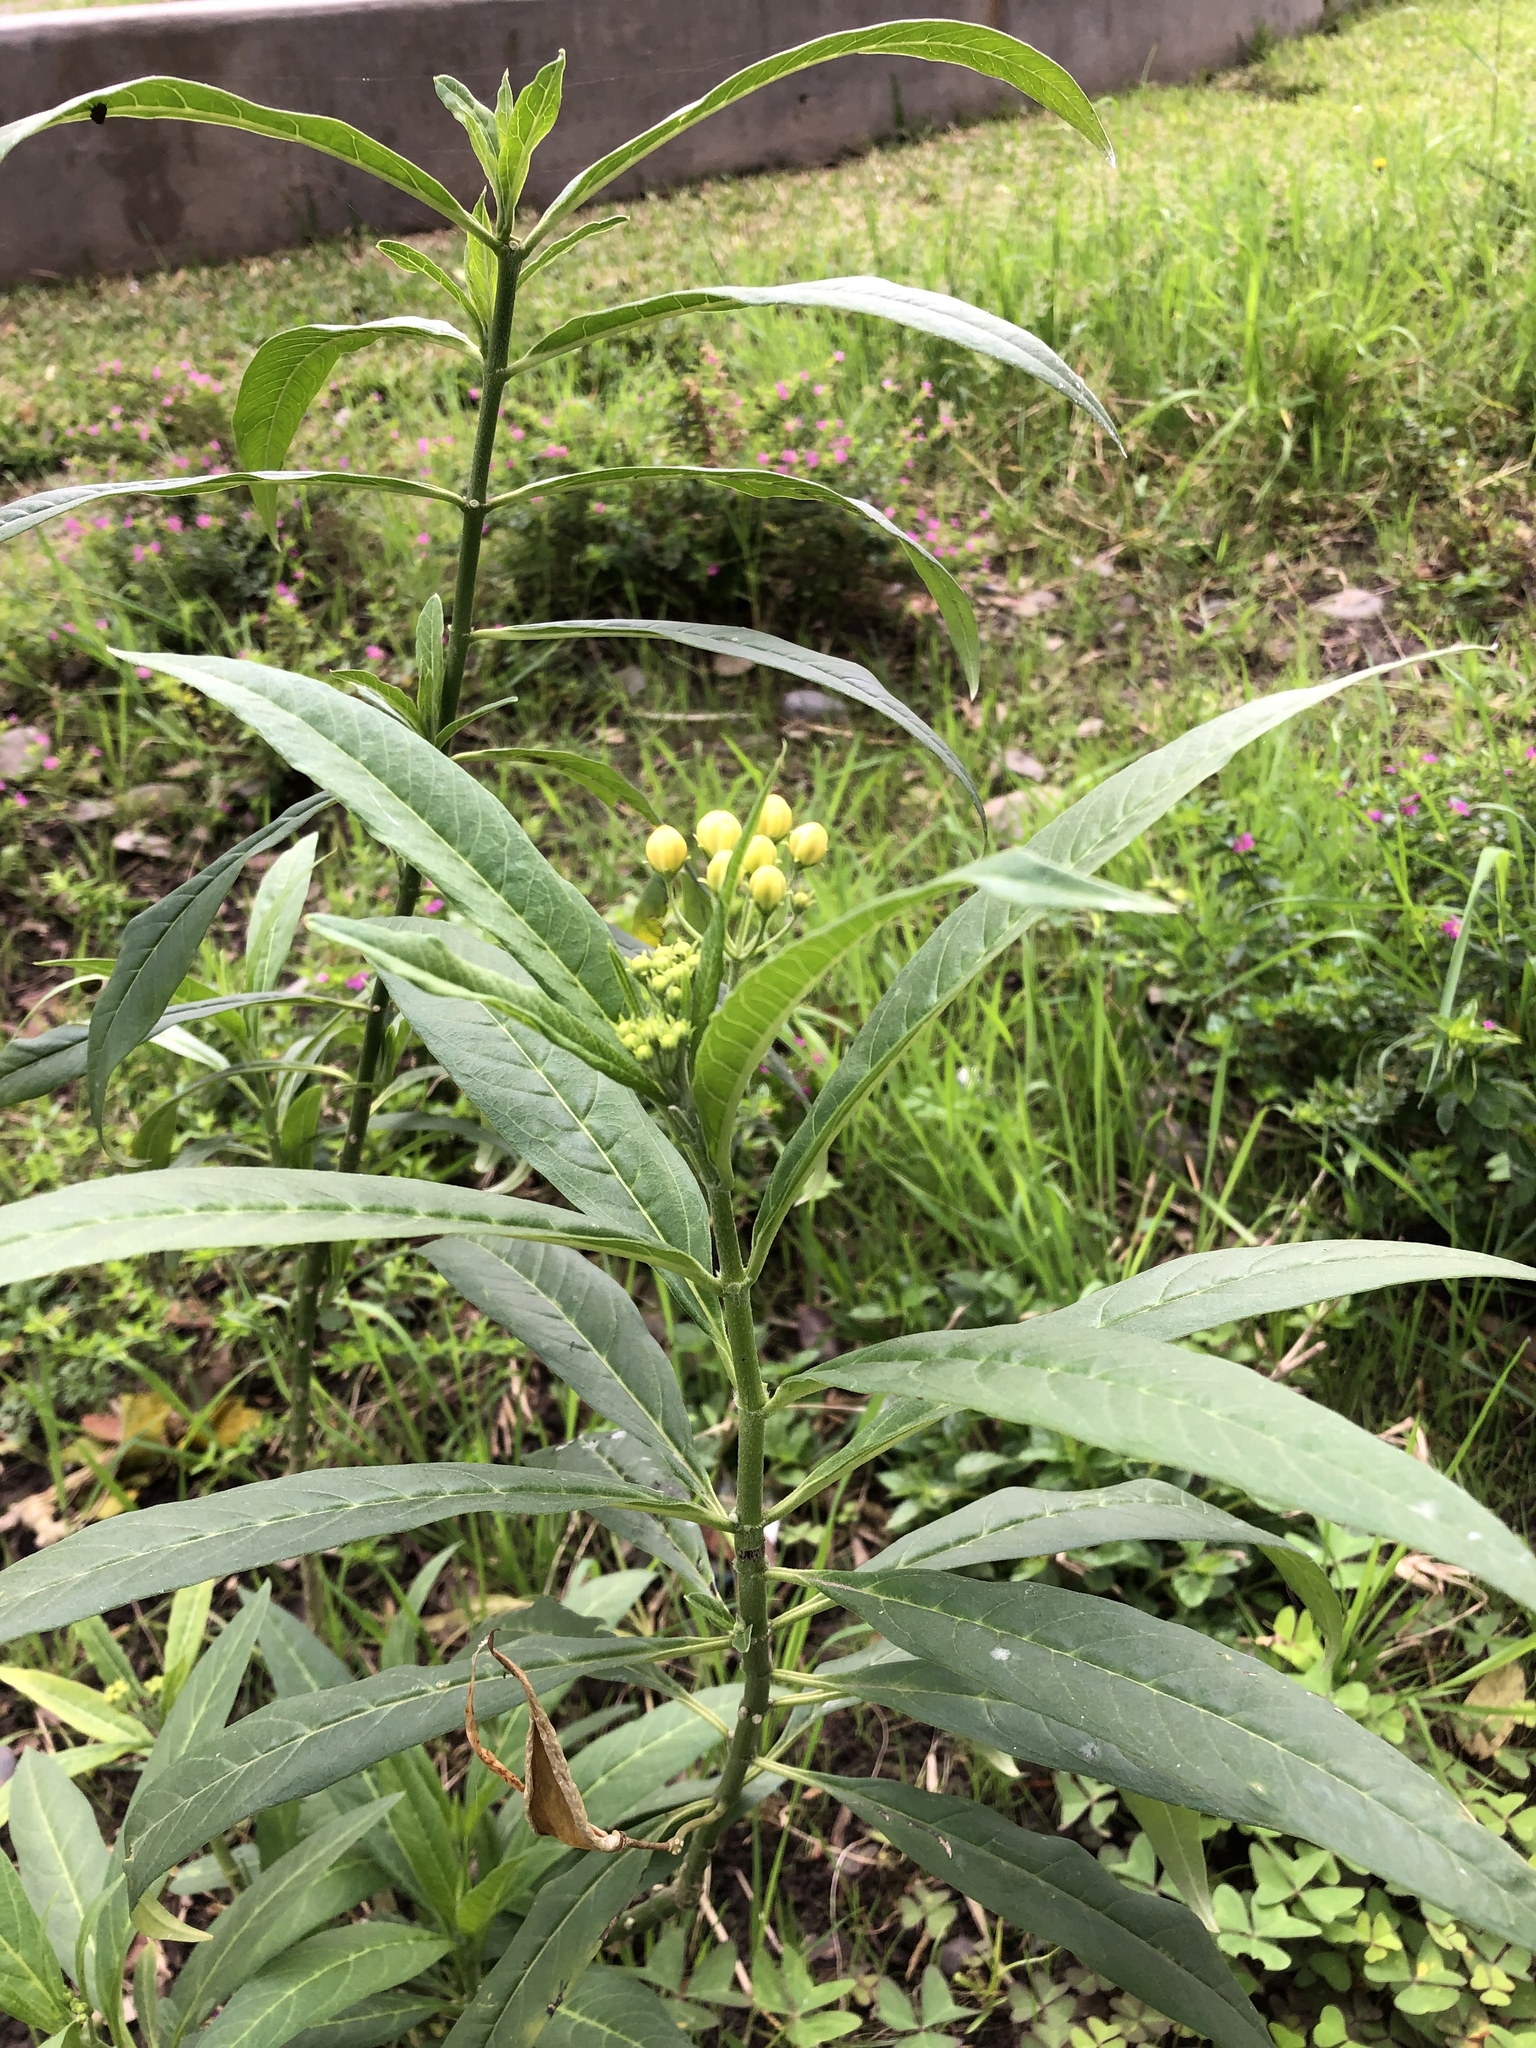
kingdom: Plantae
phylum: Tracheophyta
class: Magnoliopsida
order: Gentianales
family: Apocynaceae
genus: Asclepias
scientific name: Asclepias curassavica
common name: Bloodflower
